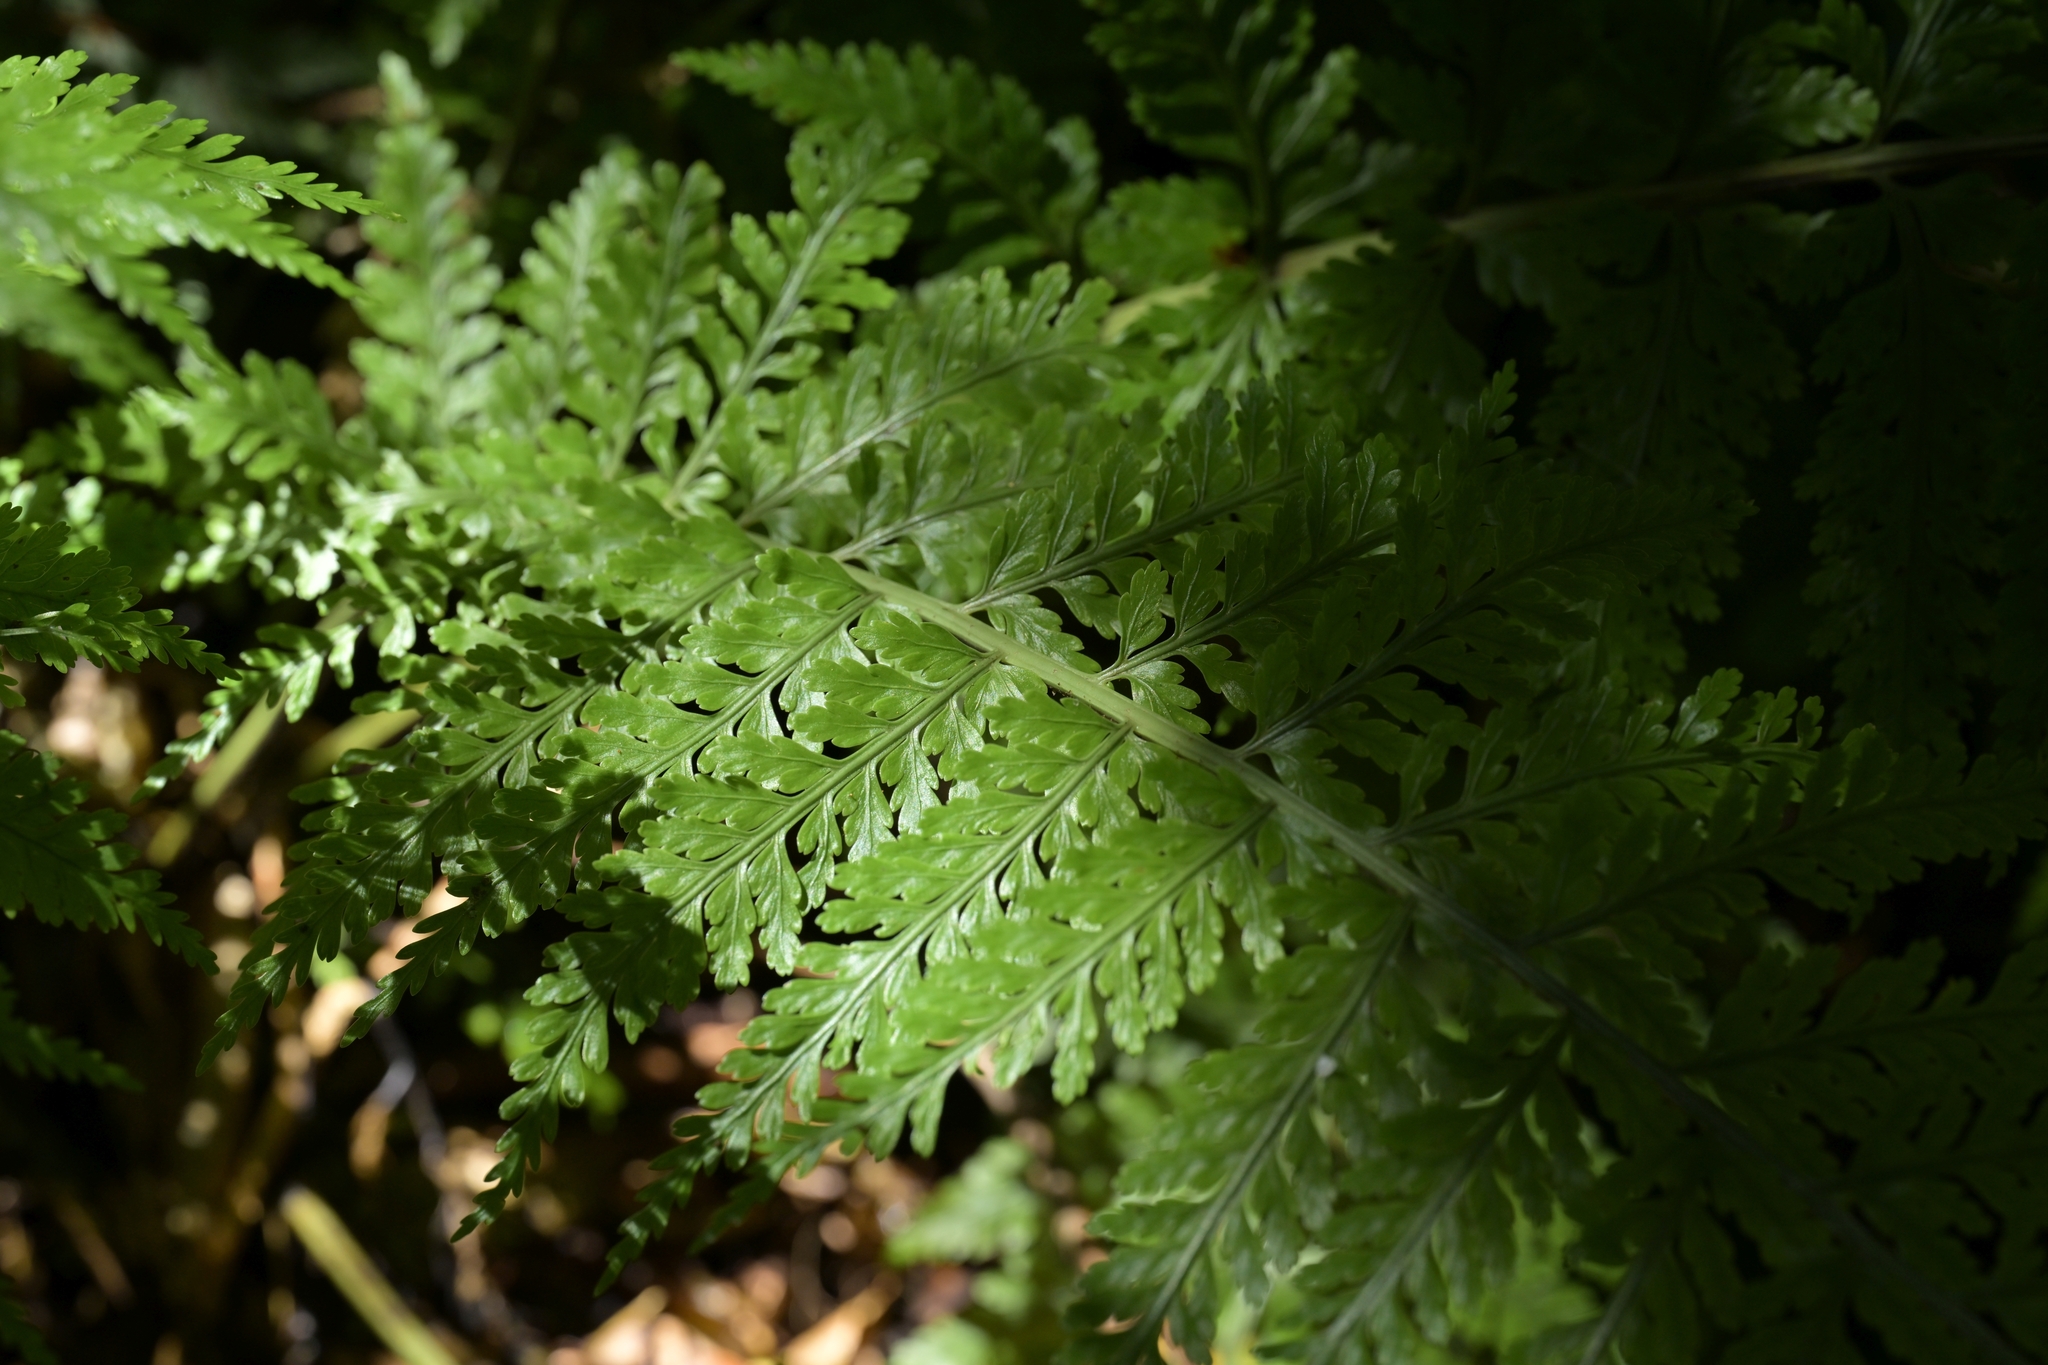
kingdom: Plantae
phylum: Tracheophyta
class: Polypodiopsida
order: Polypodiales
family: Aspleniaceae
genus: Asplenium
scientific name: Asplenium bulbiferum
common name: Mother fern
